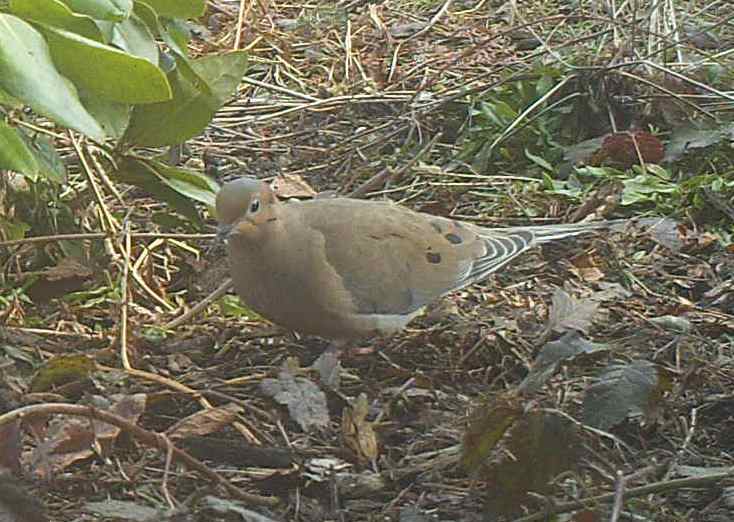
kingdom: Animalia
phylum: Chordata
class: Aves
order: Columbiformes
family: Columbidae
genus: Zenaida
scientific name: Zenaida macroura
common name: Mourning dove
